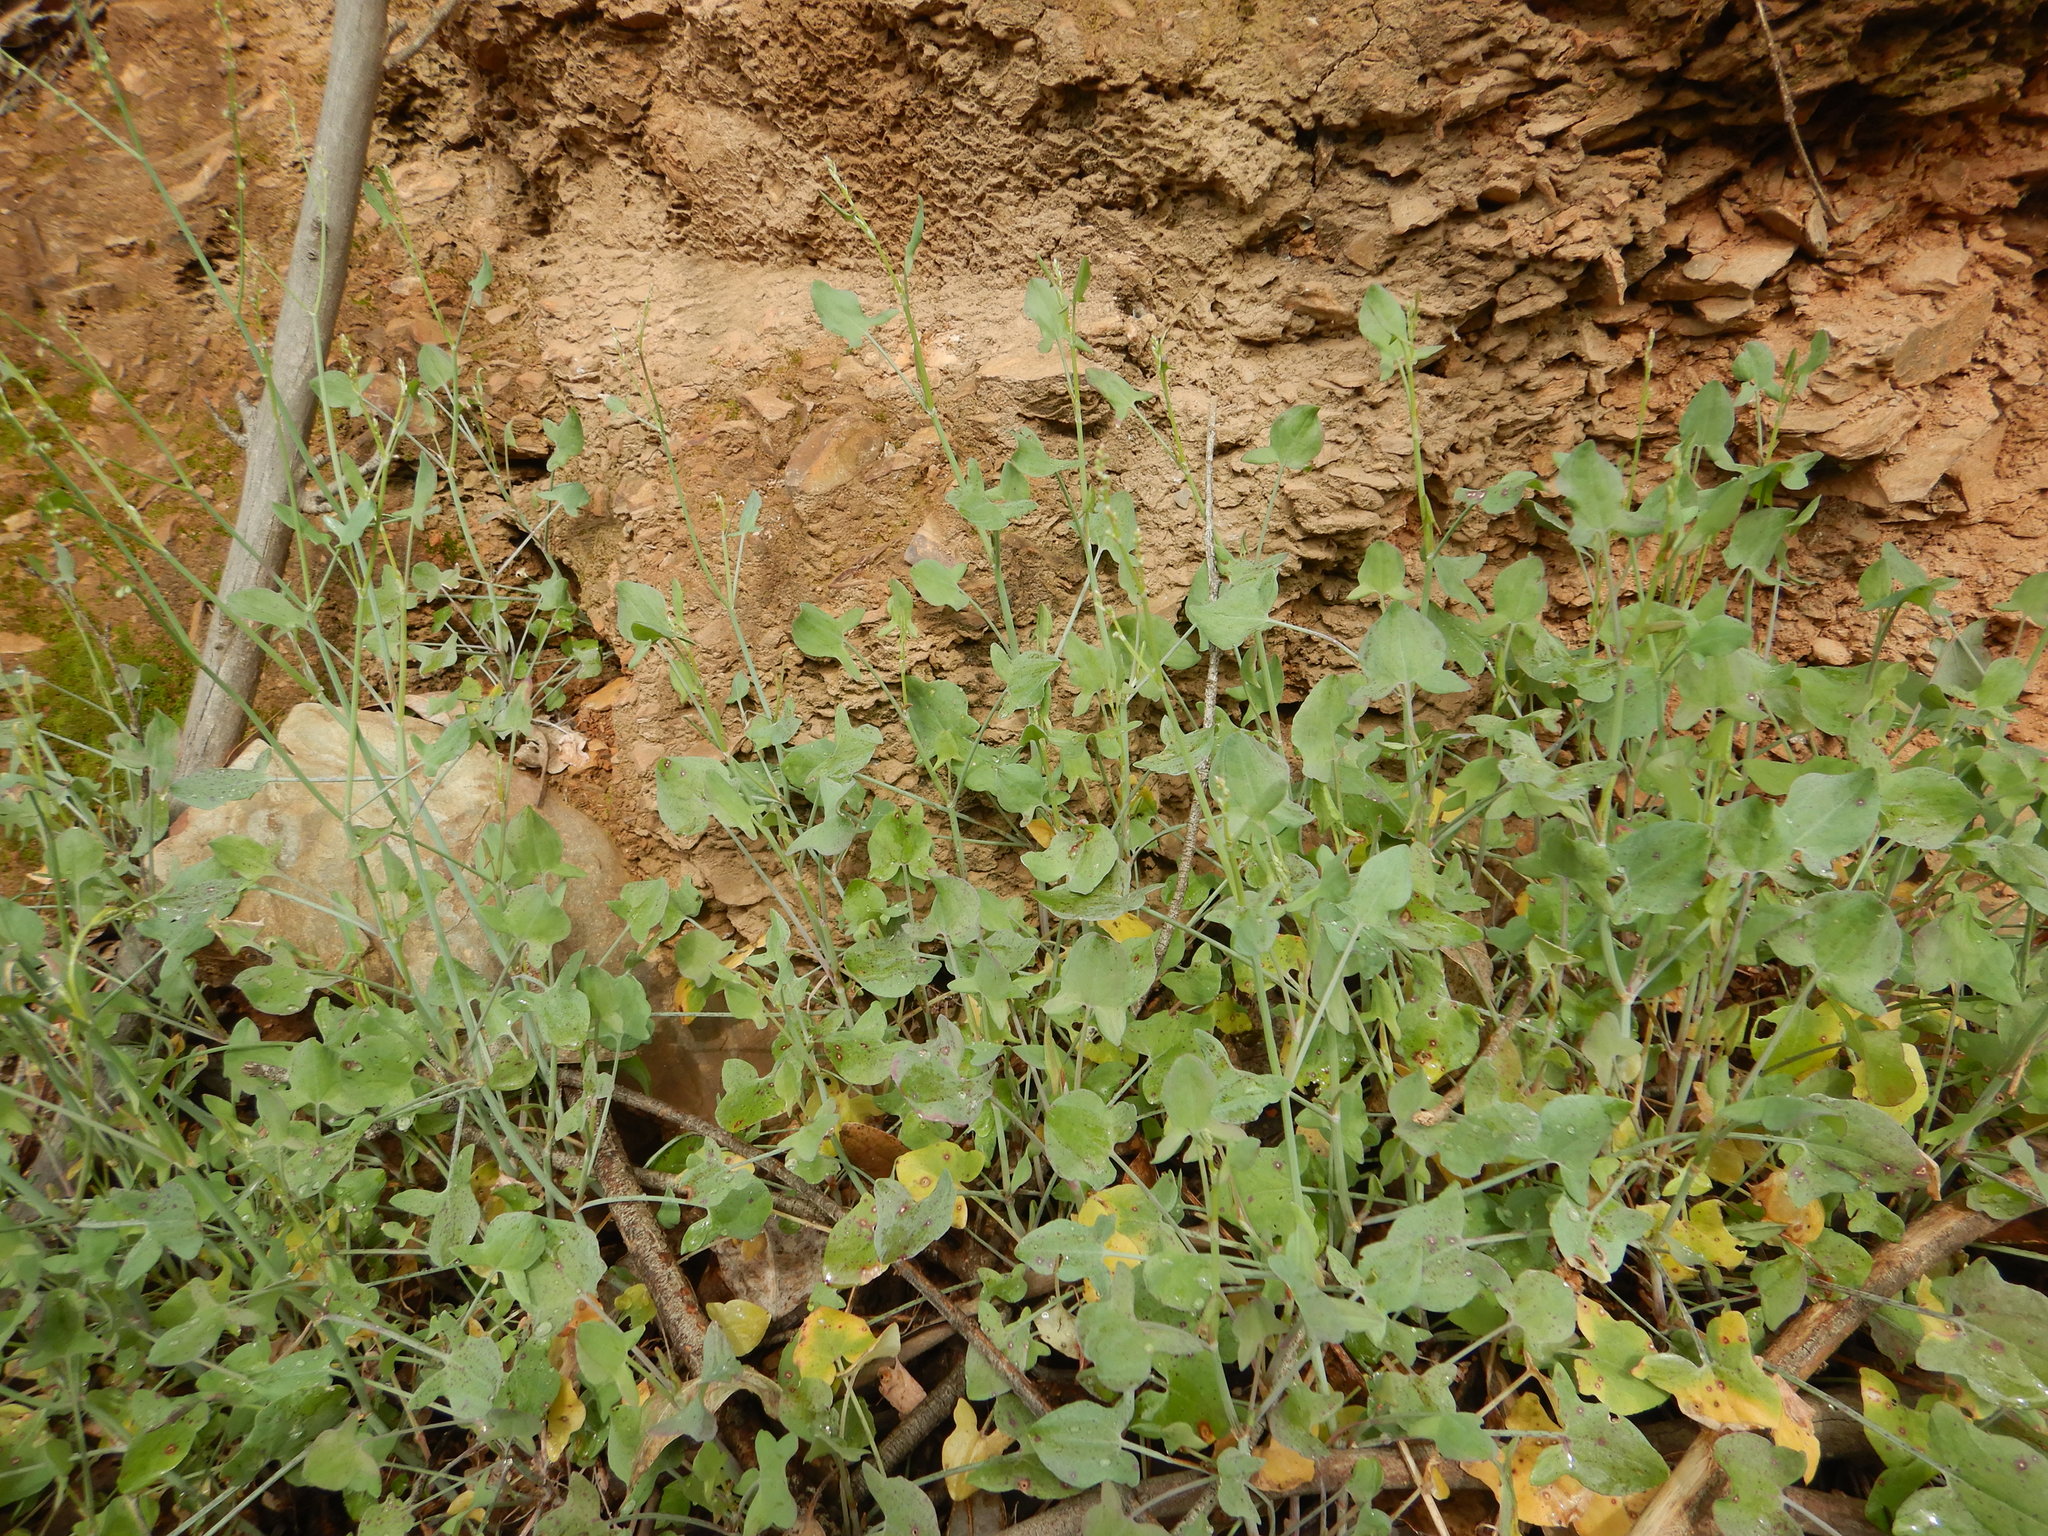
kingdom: Plantae
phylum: Tracheophyta
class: Magnoliopsida
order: Caryophyllales
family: Polygonaceae
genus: Rumex
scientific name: Rumex induratus
